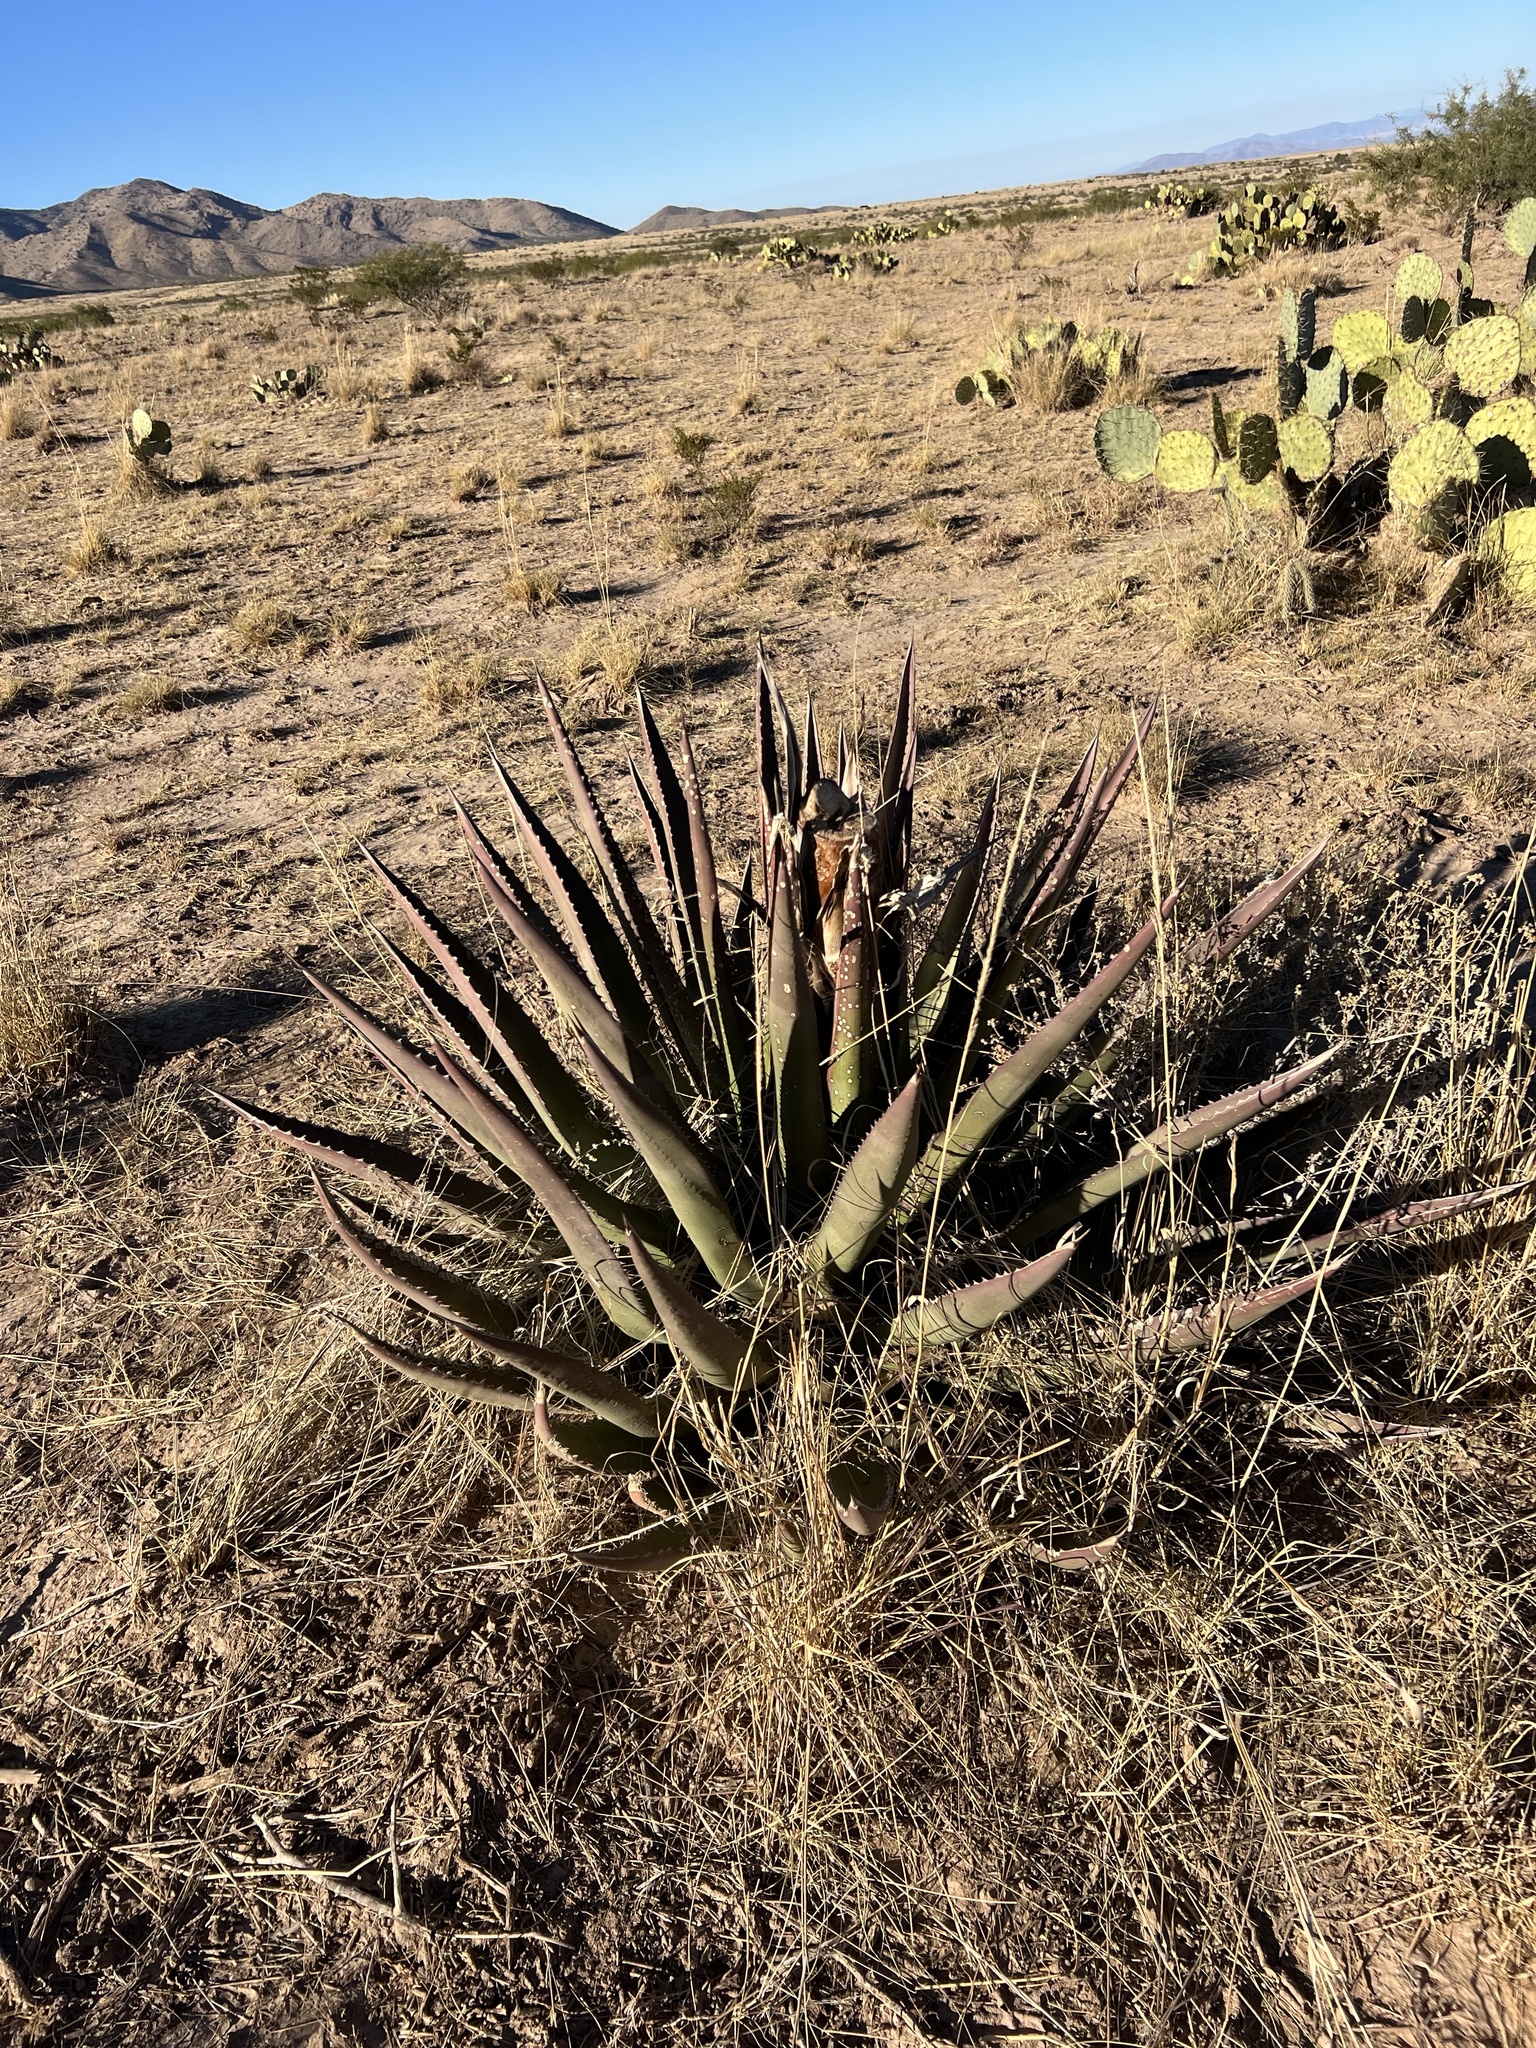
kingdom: Plantae
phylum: Tracheophyta
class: Liliopsida
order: Asparagales
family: Asparagaceae
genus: Agave
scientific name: Agave palmeri
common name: Palmer agave
